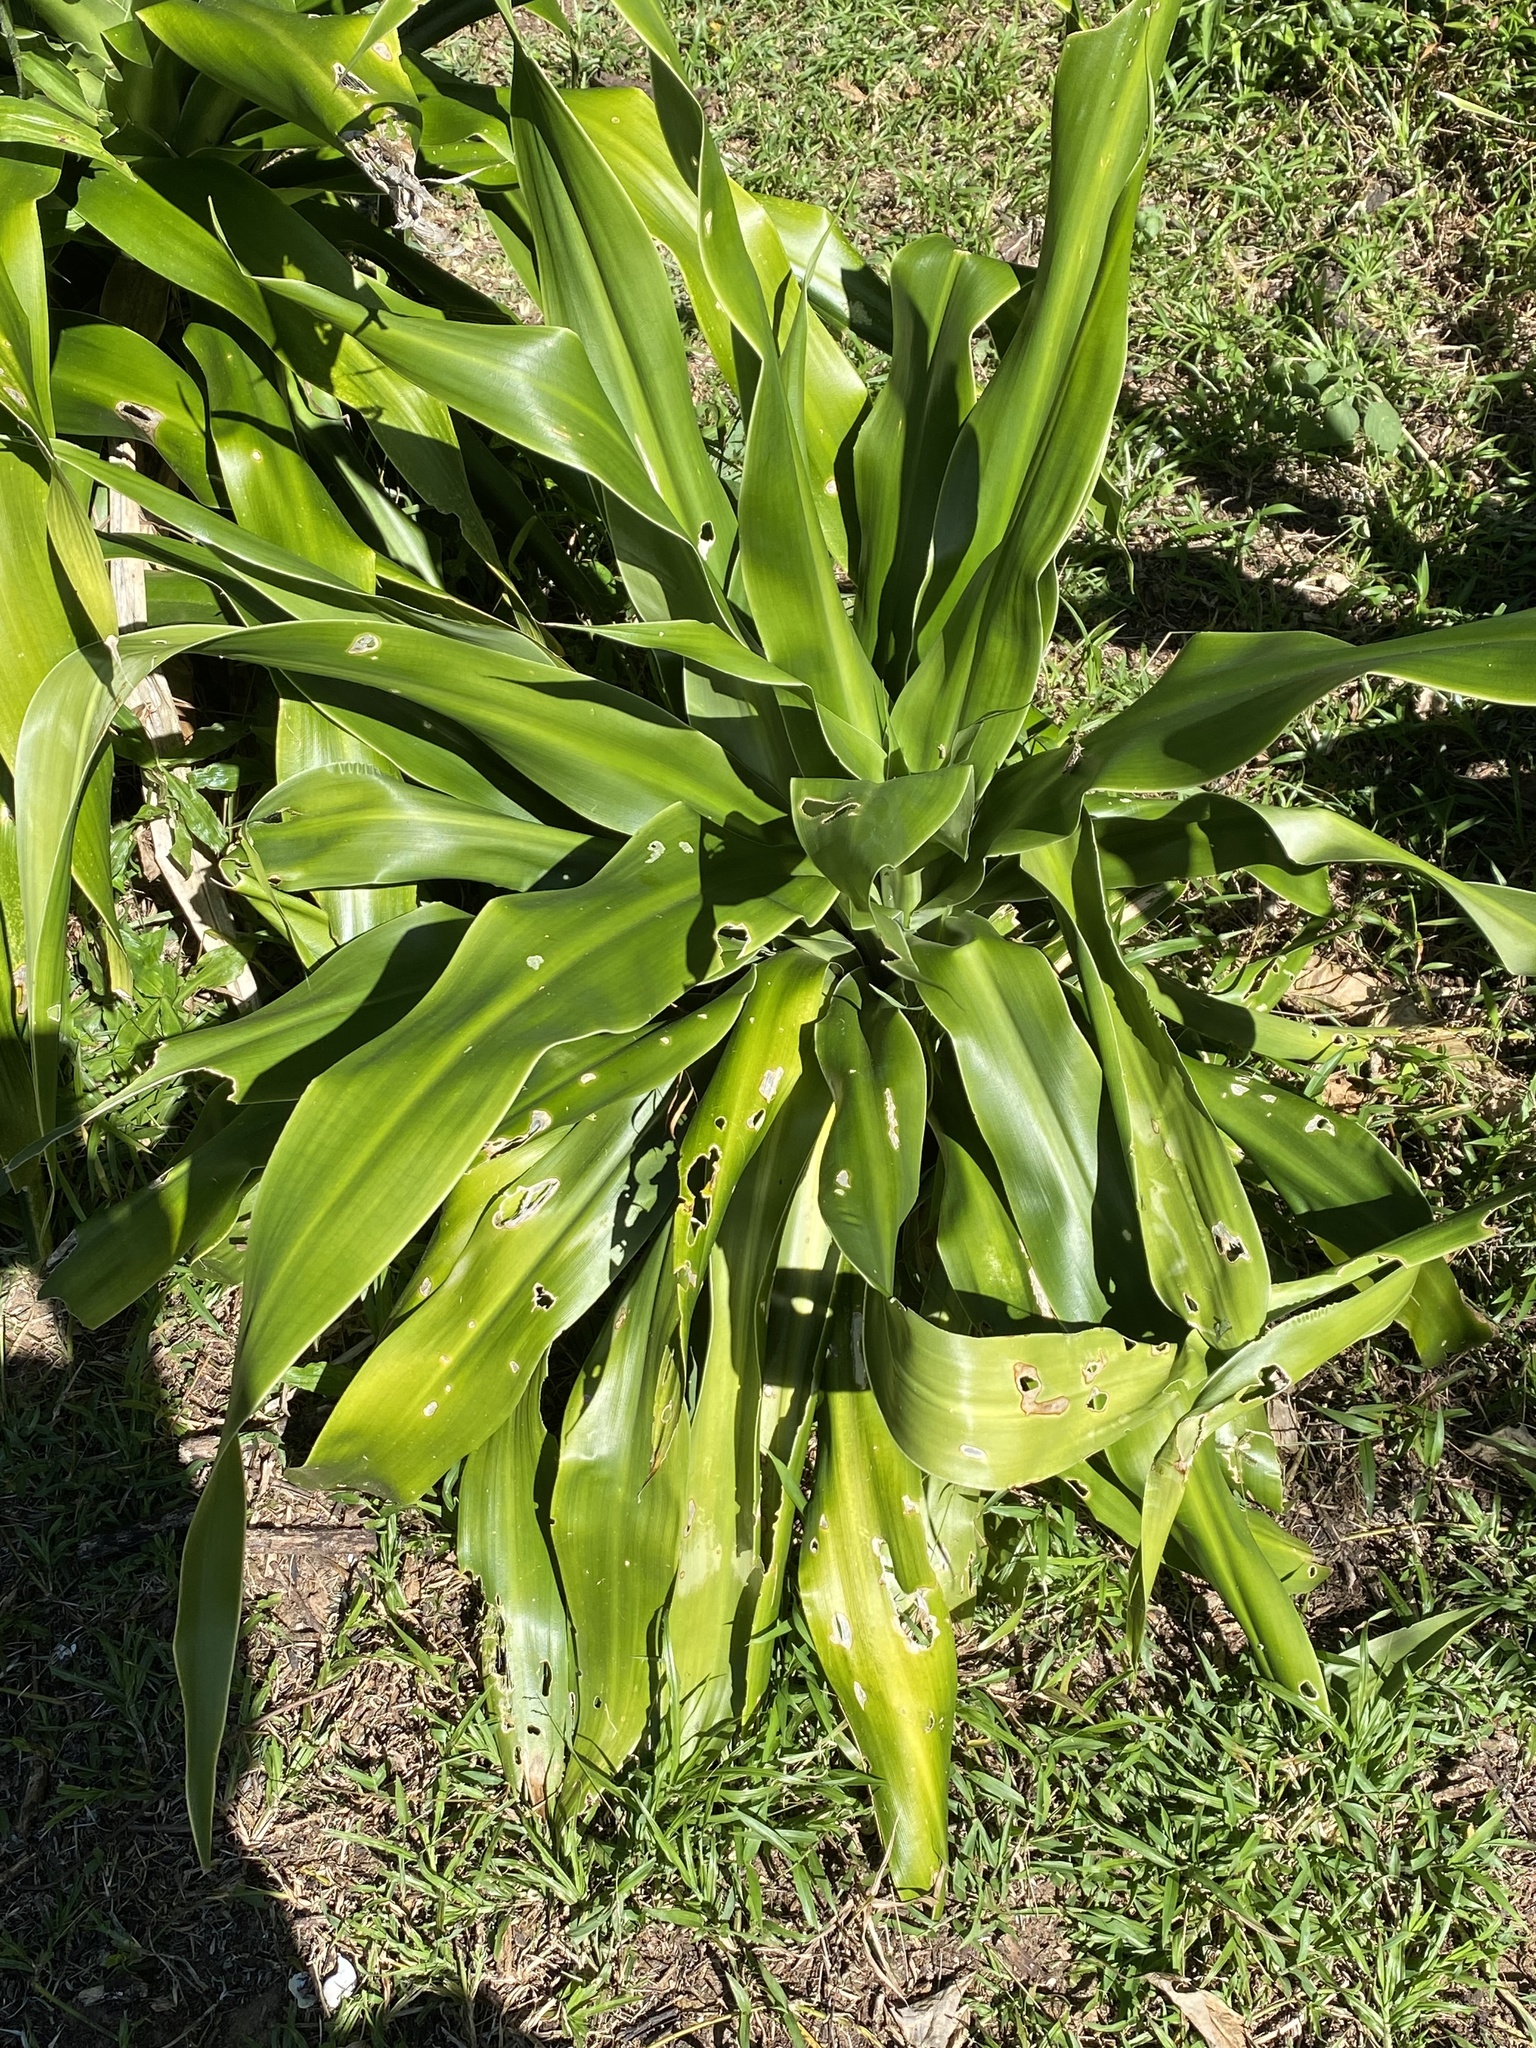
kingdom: Plantae
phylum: Tracheophyta
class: Liliopsida
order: Asparagales
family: Asparagaceae
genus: Dracaena
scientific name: Dracaena aletriformis
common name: Large-leaved dragon tree
